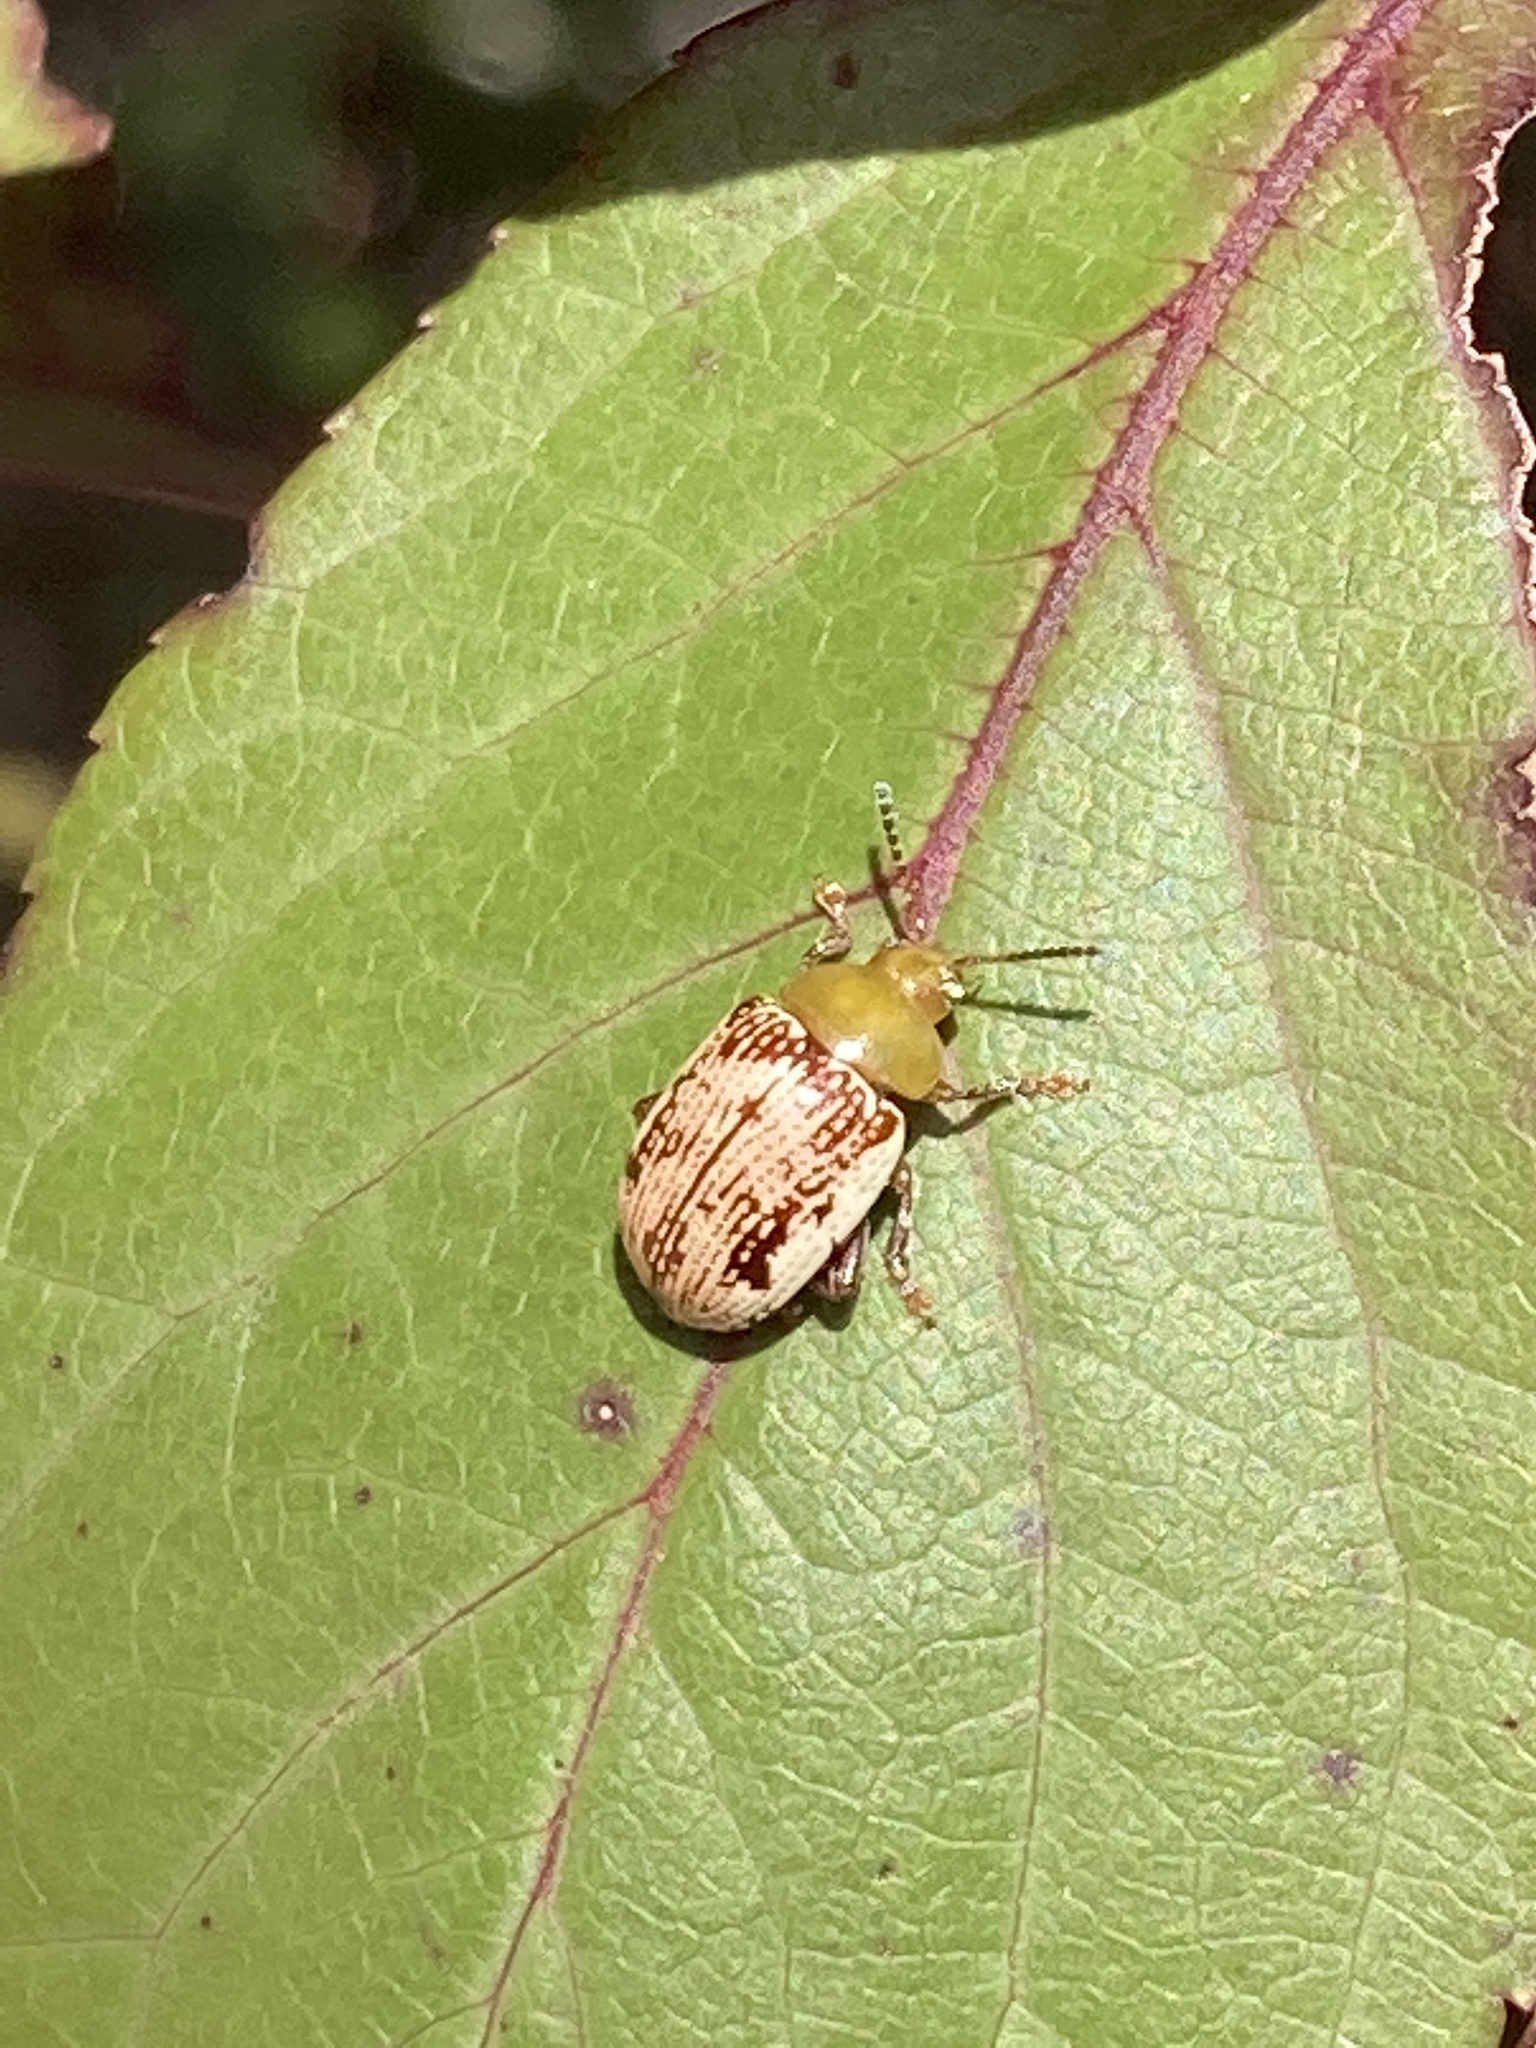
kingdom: Animalia
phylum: Arthropoda
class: Insecta
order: Coleoptera
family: Chrysomelidae
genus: Blepharida
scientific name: Blepharida rhois
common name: Sumac flea beetle
